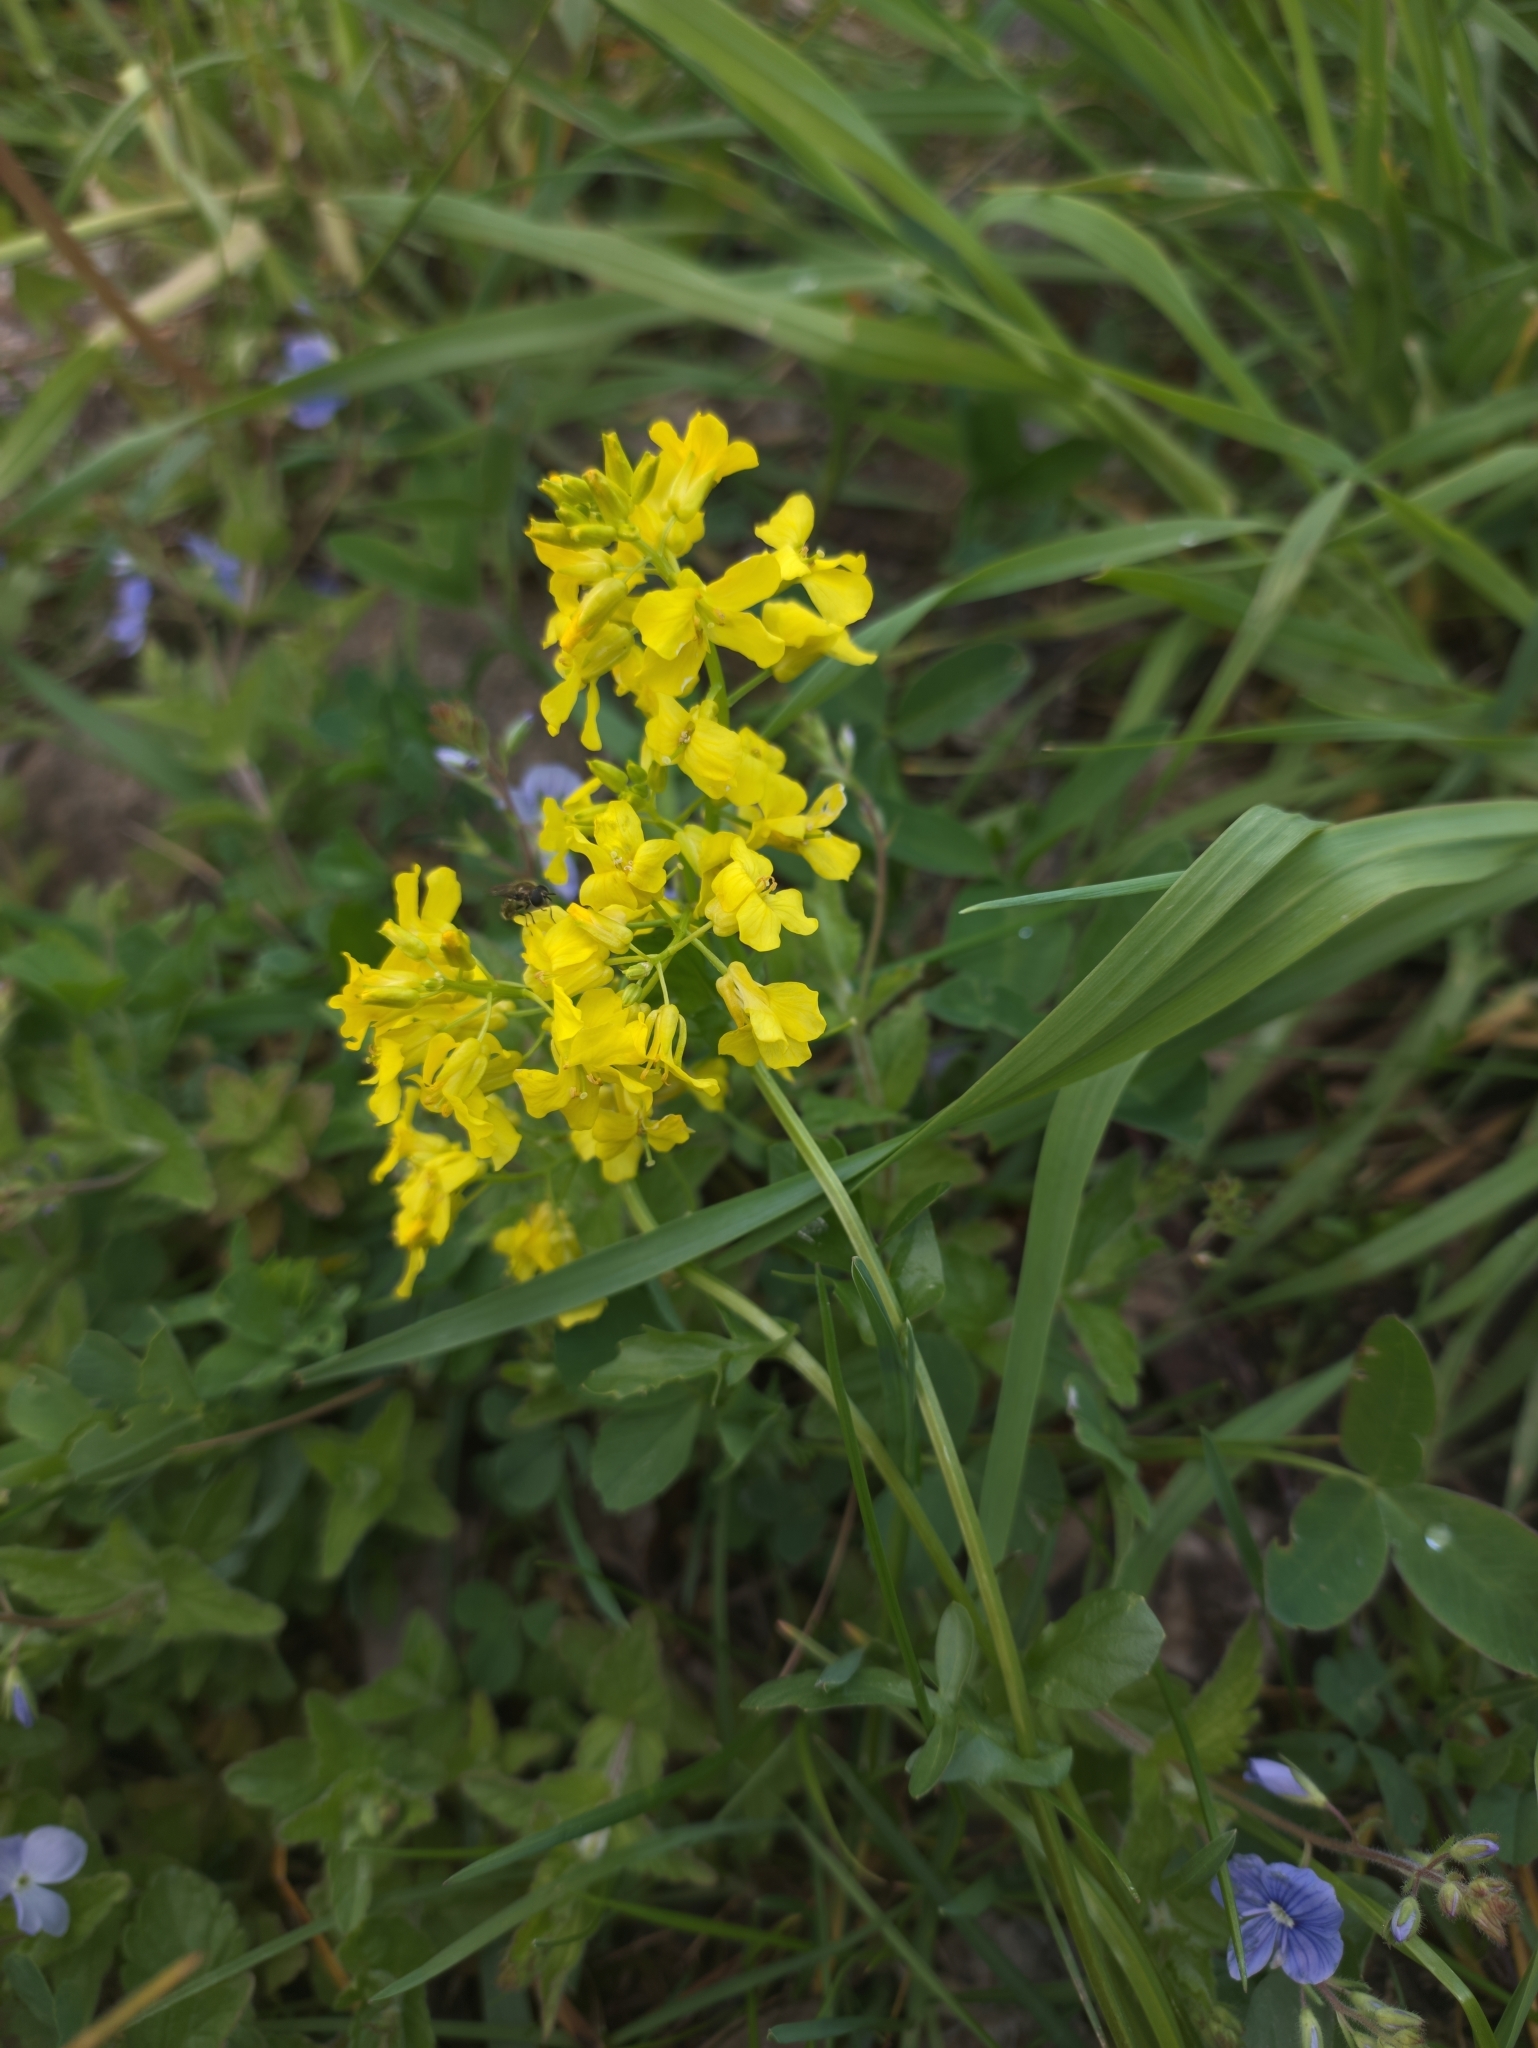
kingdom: Plantae
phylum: Tracheophyta
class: Magnoliopsida
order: Brassicales
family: Brassicaceae
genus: Barbarea
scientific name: Barbarea vulgaris
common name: Cressy-greens
